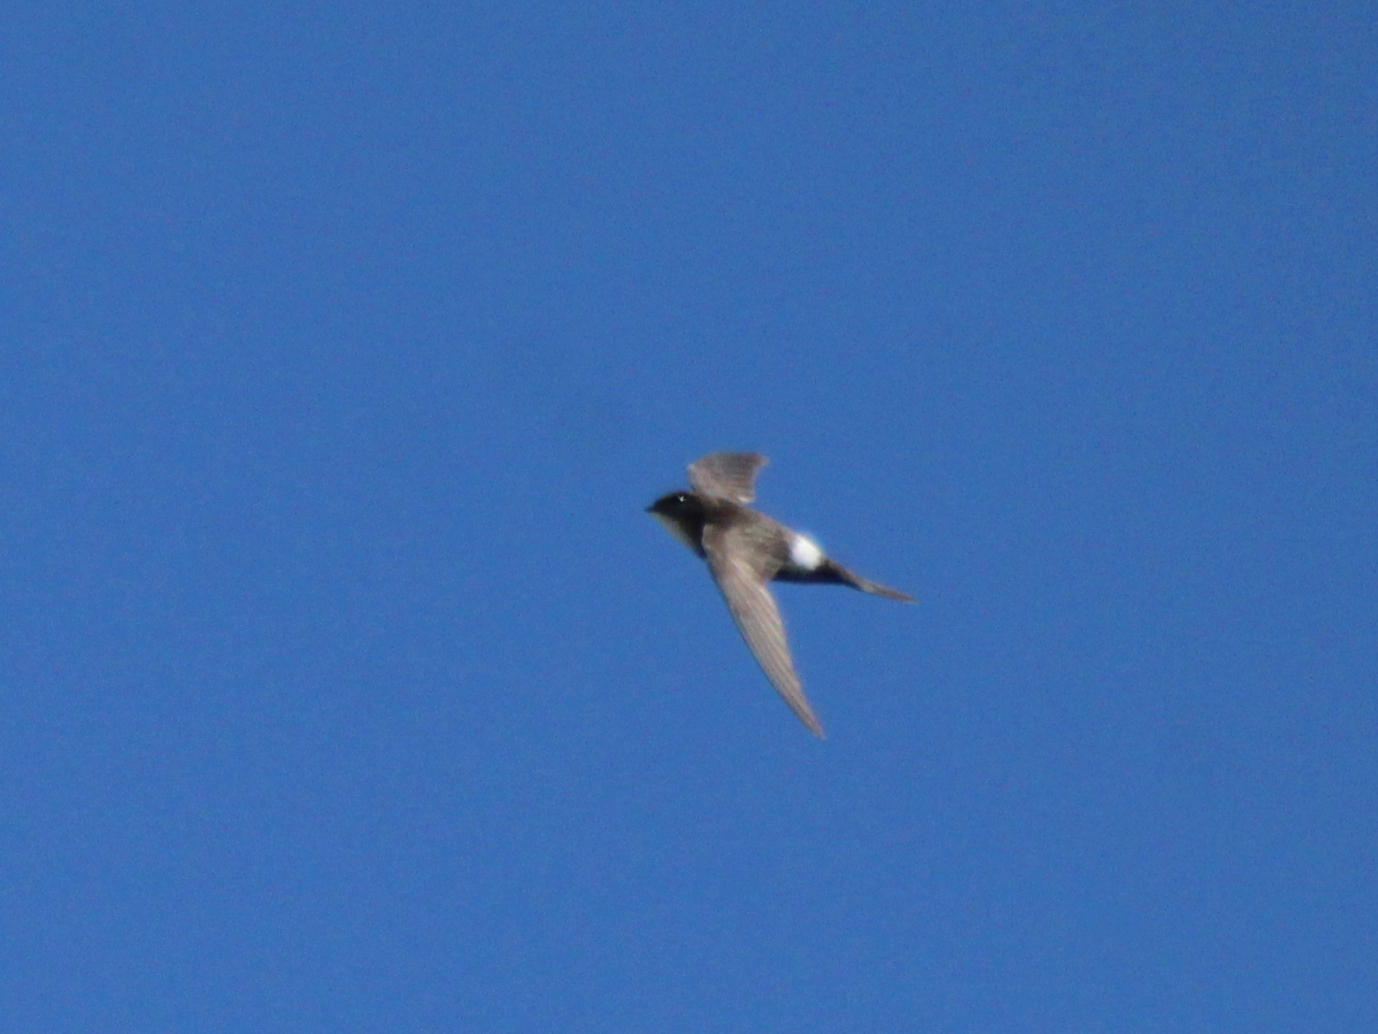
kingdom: Animalia
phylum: Chordata
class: Aves
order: Apodiformes
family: Apodidae
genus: Apus
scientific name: Apus pacificus
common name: Pacific swift
